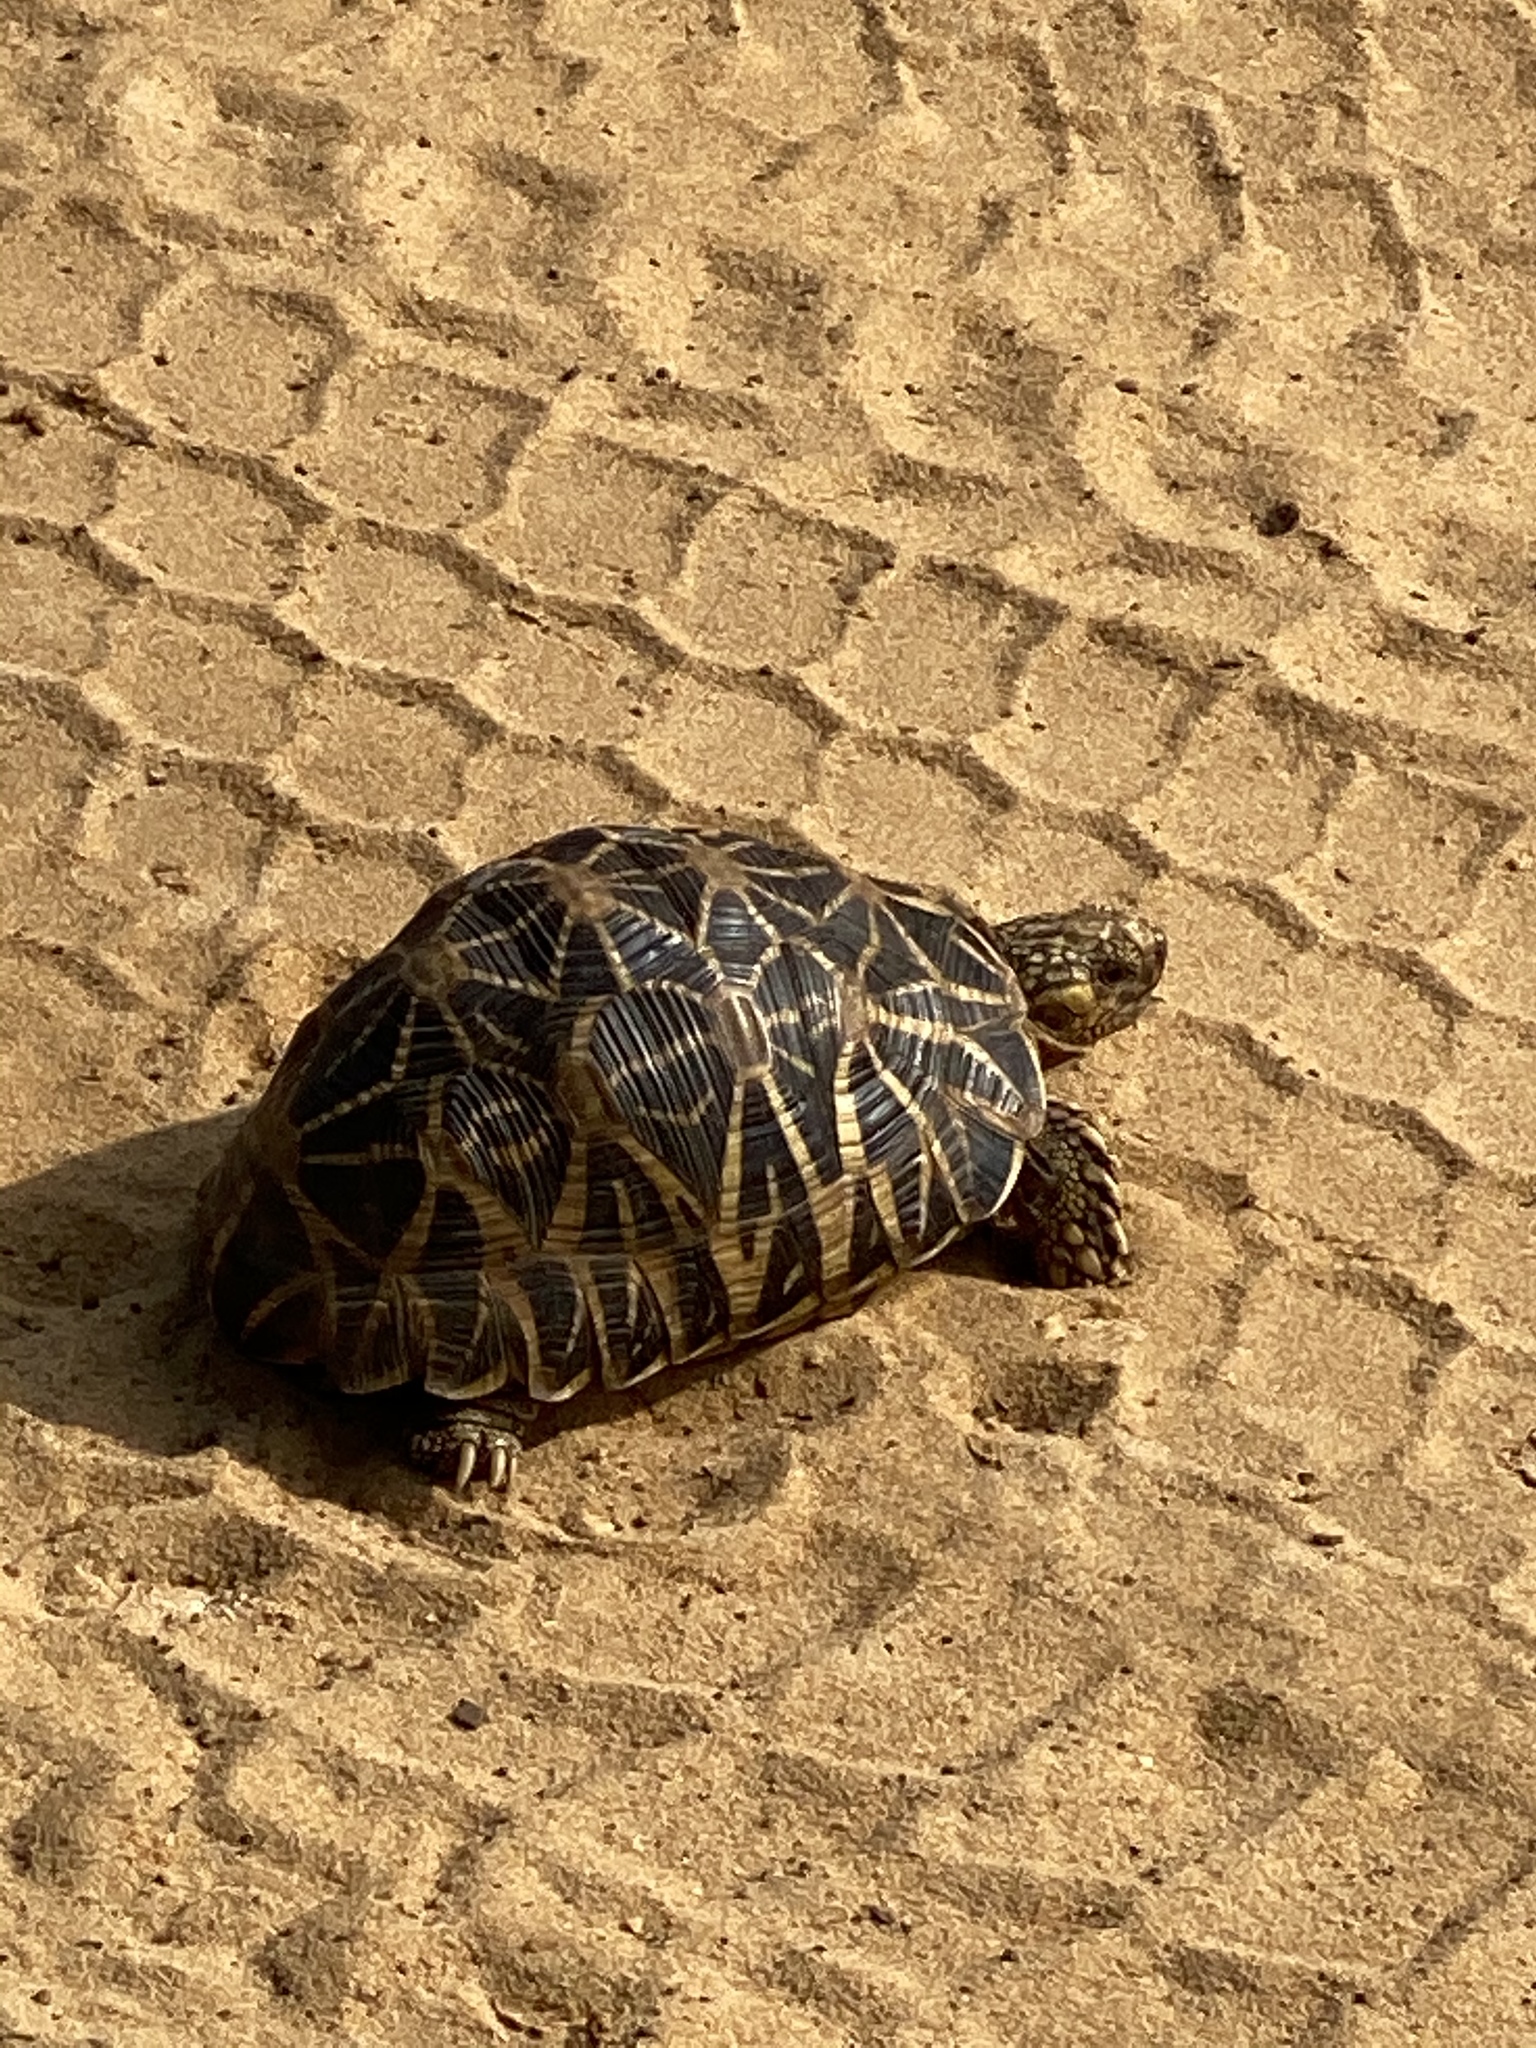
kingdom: Animalia
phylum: Chordata
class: Testudines
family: Testudinidae
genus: Geochelone
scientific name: Geochelone elegans
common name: Indian star tortoise
